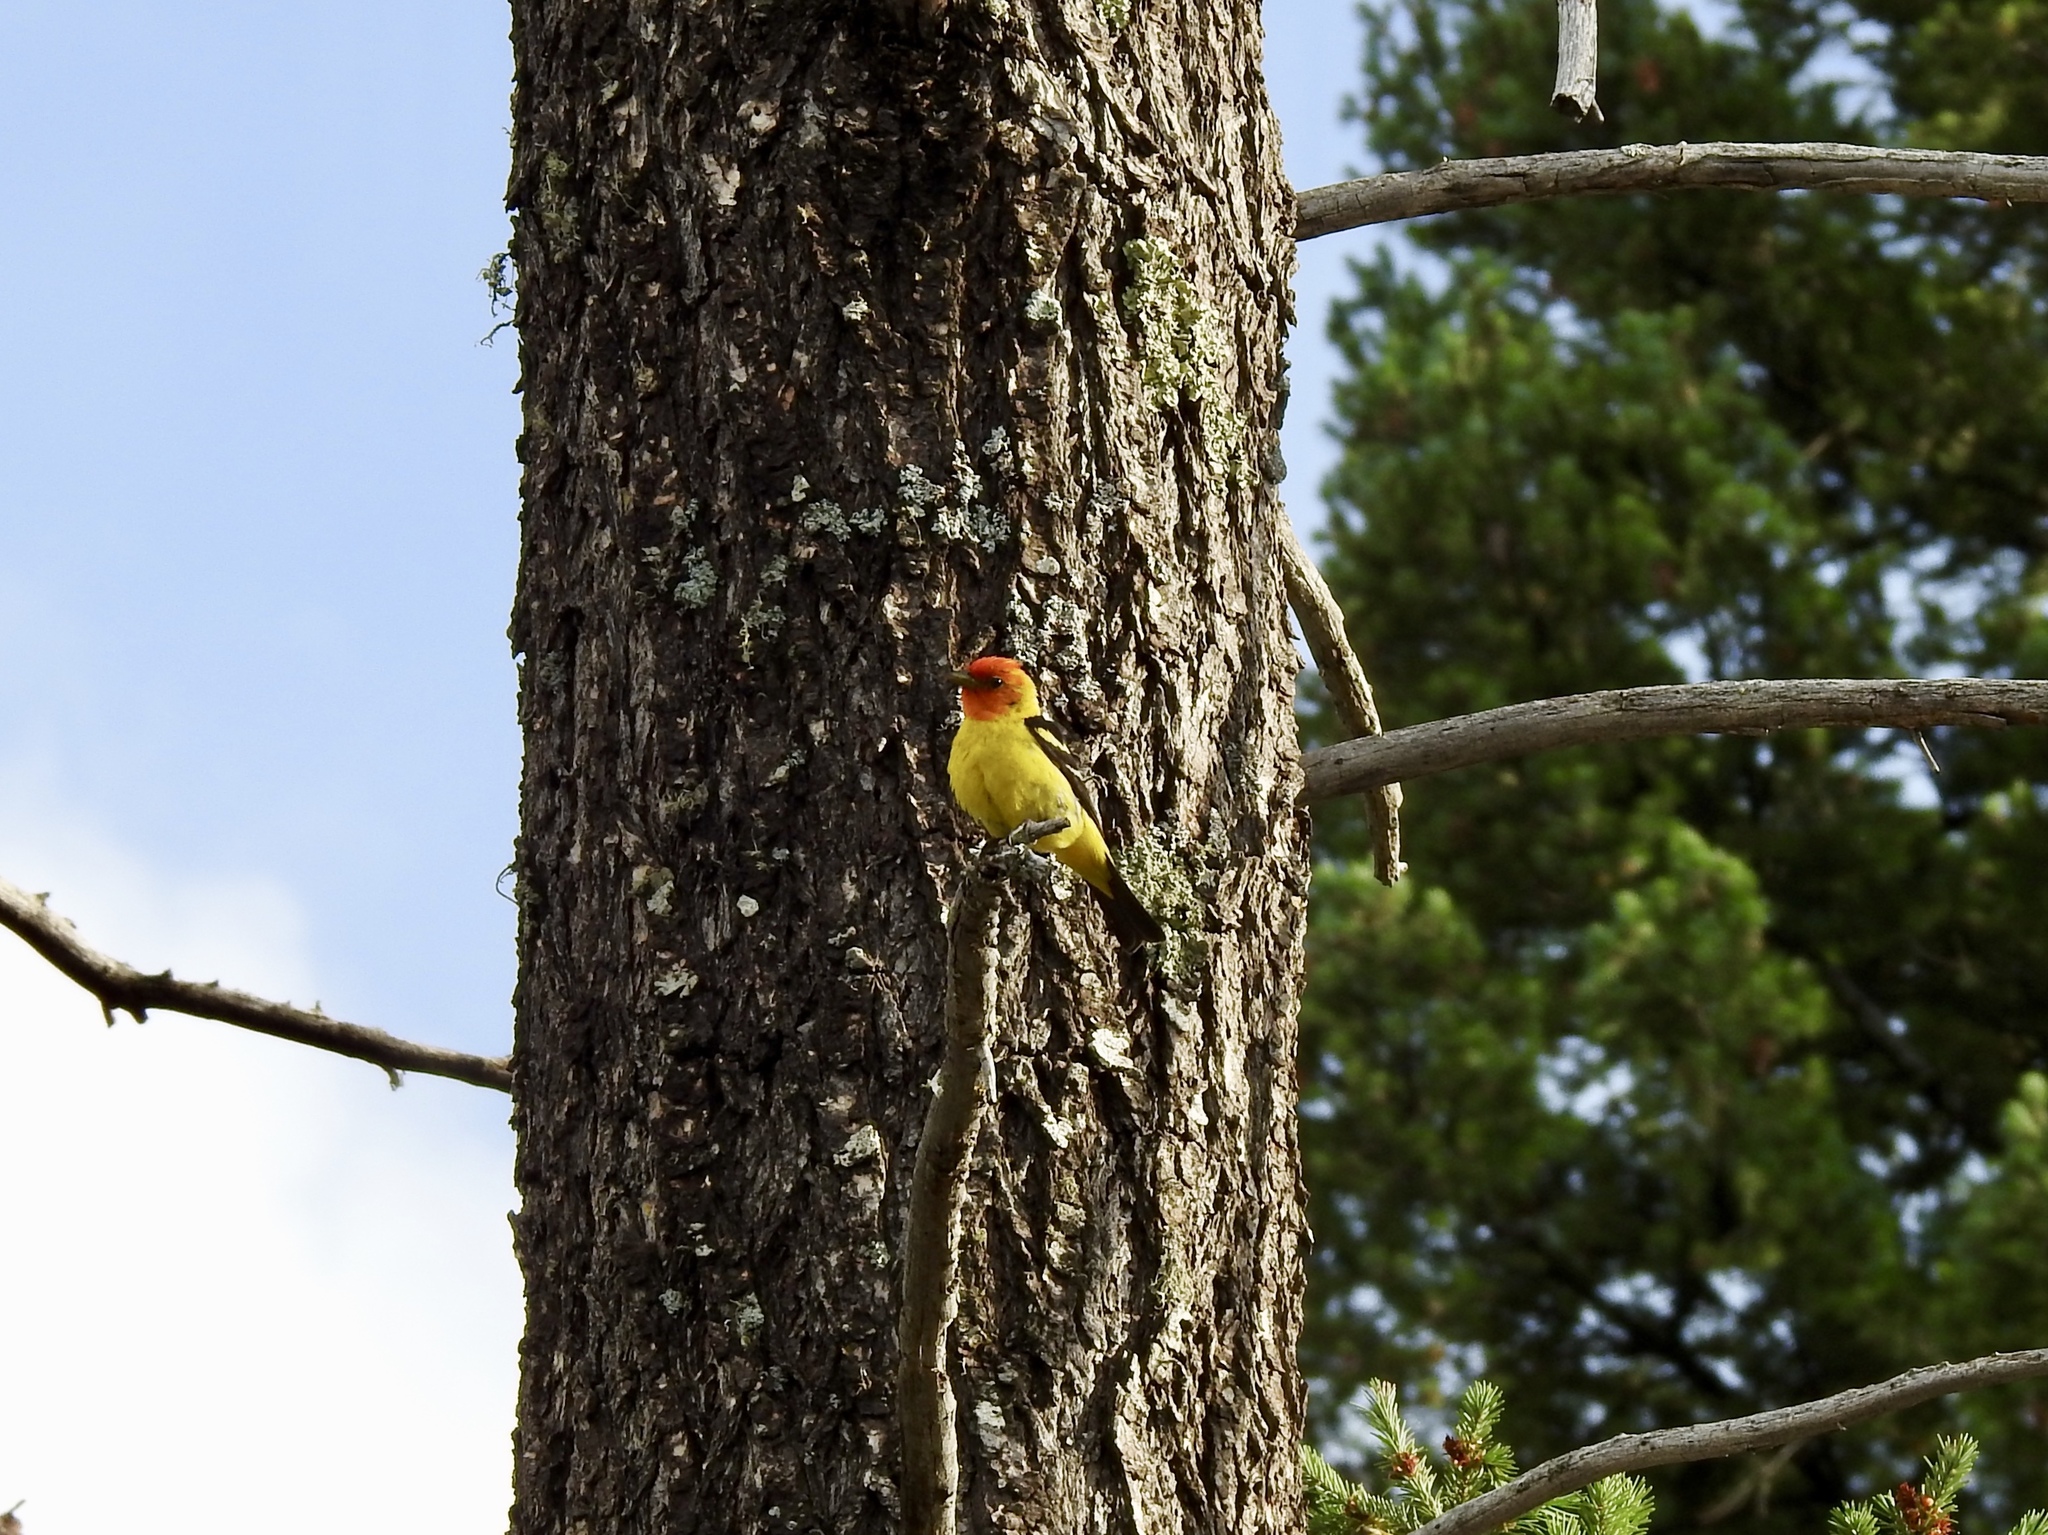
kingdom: Animalia
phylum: Chordata
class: Aves
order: Passeriformes
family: Cardinalidae
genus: Piranga
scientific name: Piranga ludoviciana
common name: Western tanager
